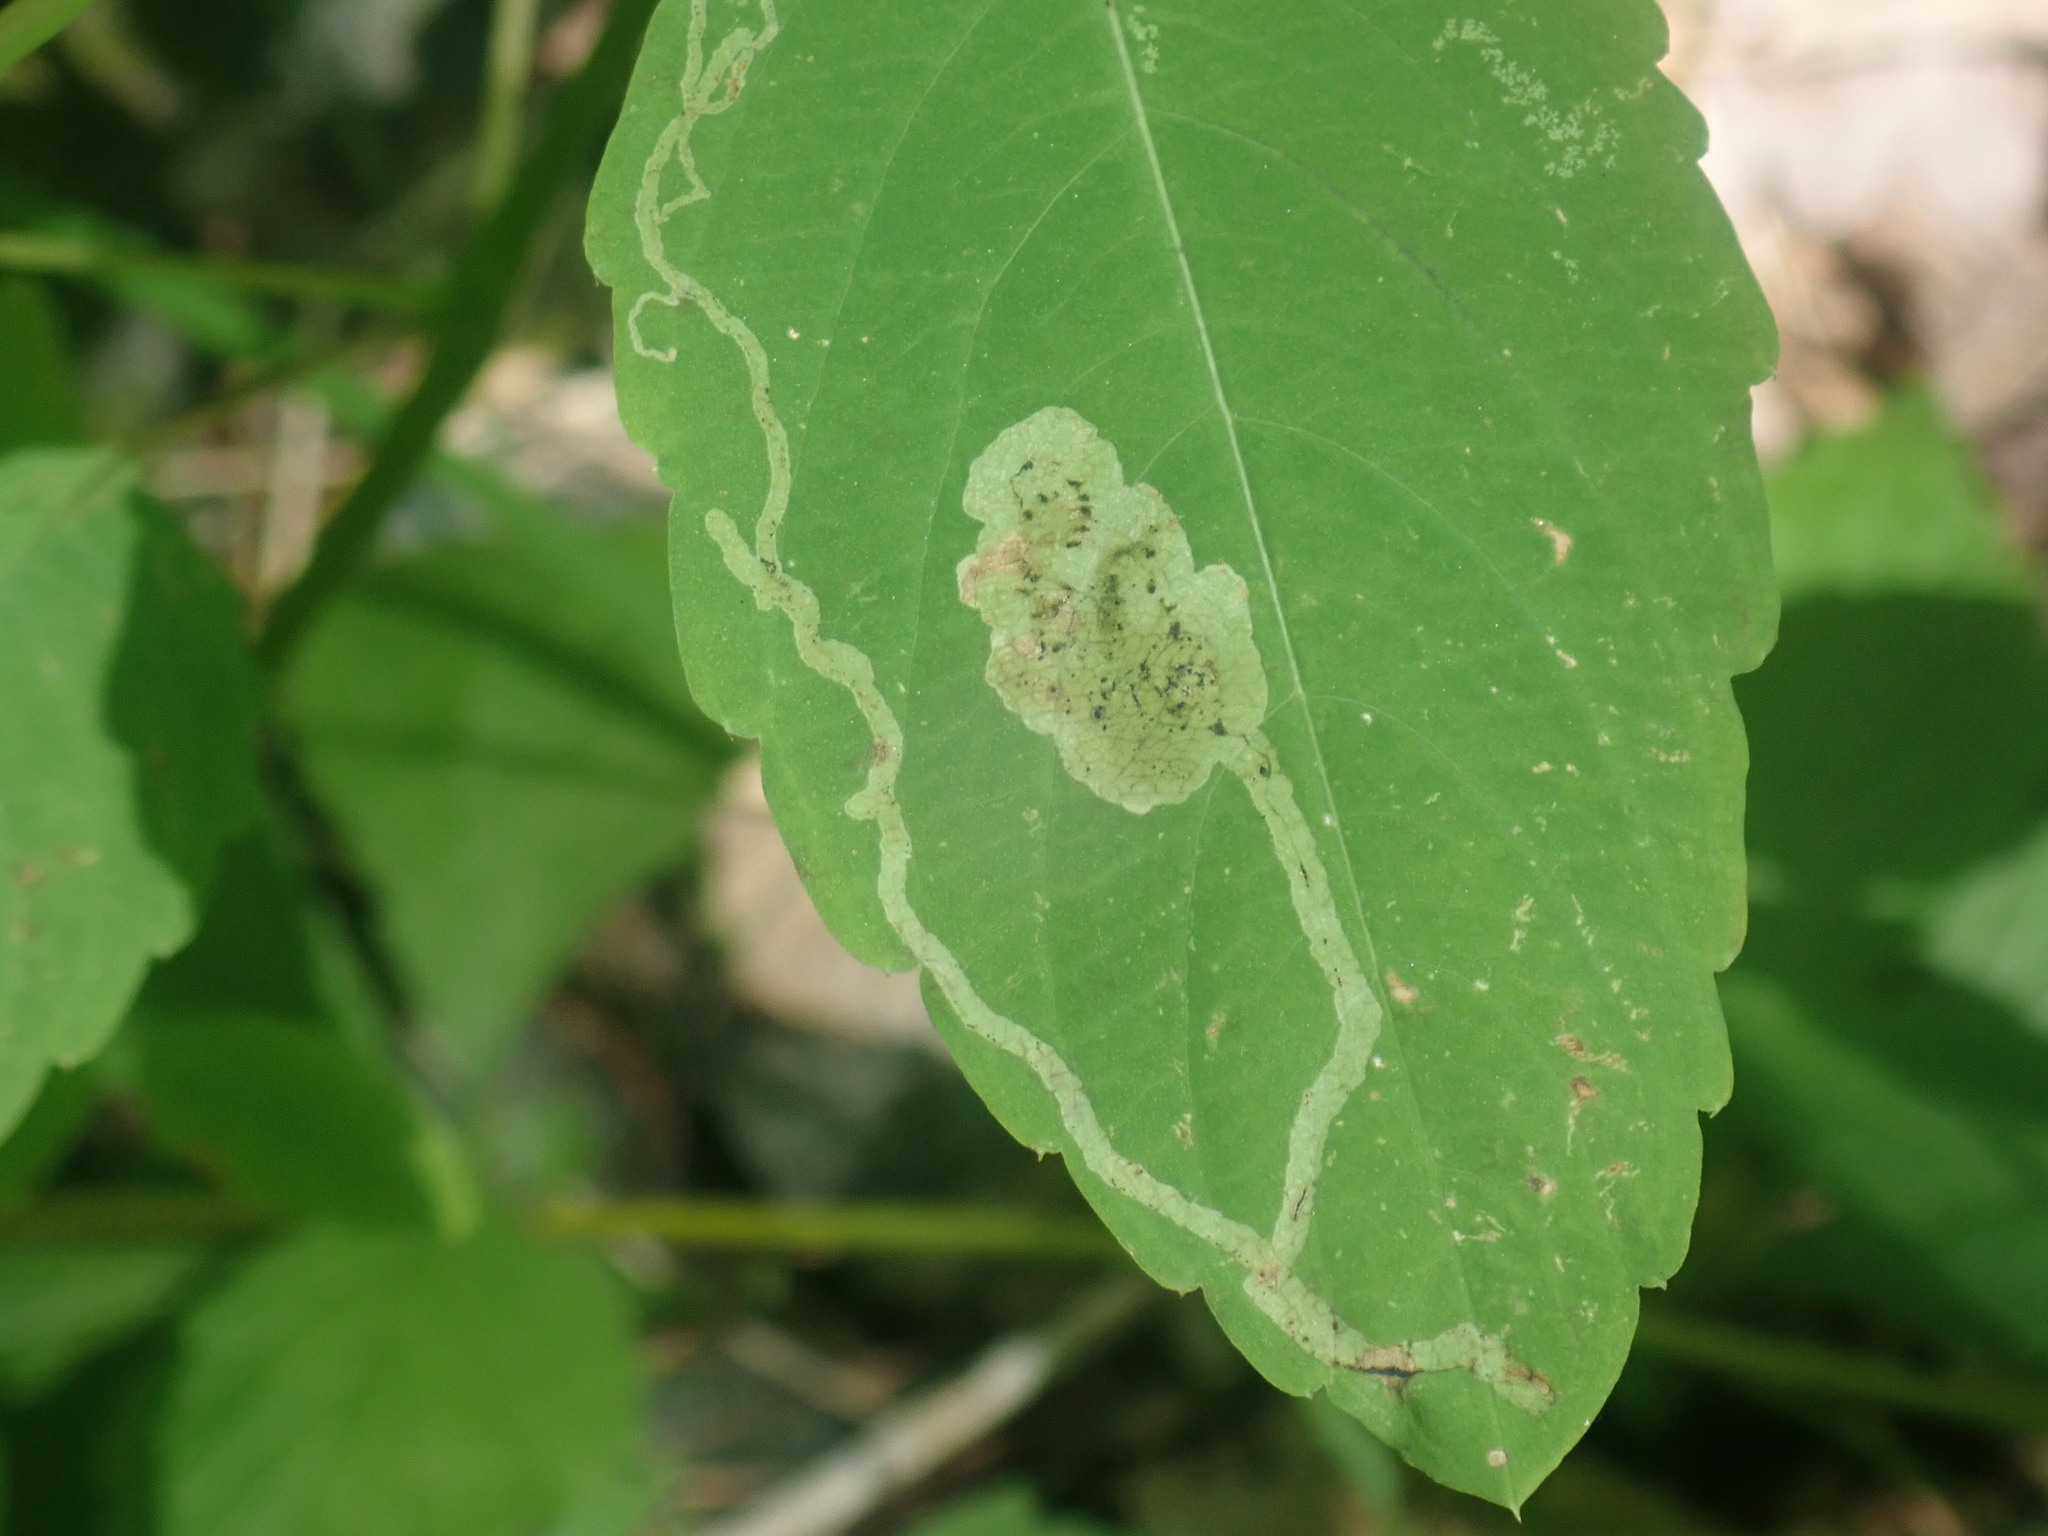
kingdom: Animalia
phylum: Arthropoda
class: Insecta
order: Diptera
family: Agromyzidae
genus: Phytoliriomyza
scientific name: Phytoliriomyza melampyga
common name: Jewelweed leaf-miner fly
